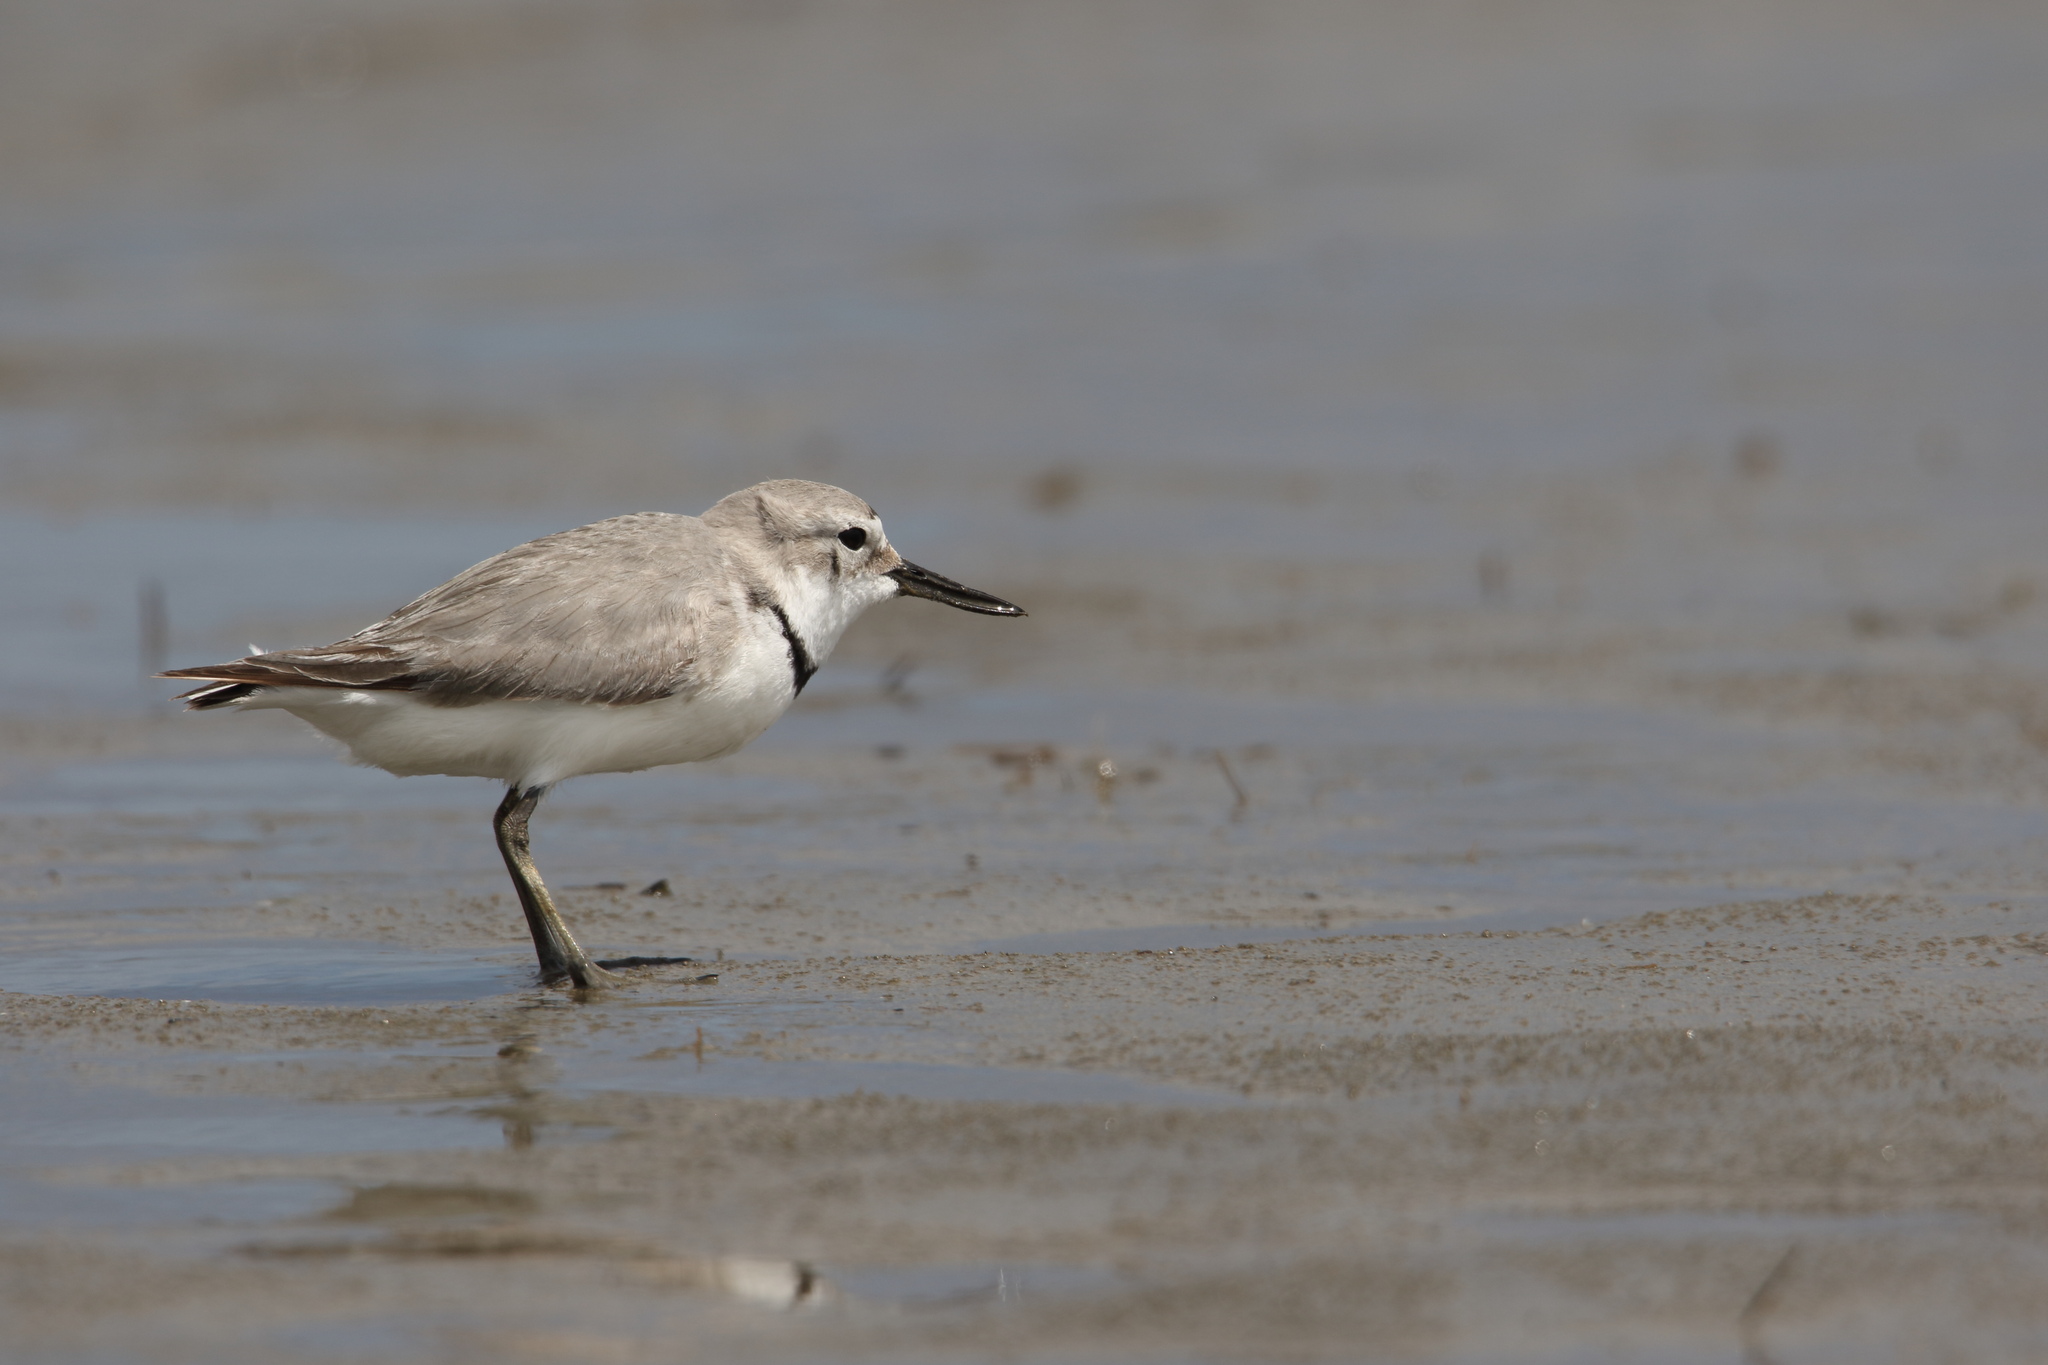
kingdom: Animalia
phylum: Chordata
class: Aves
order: Charadriiformes
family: Charadriidae
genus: Anarhynchus
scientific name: Anarhynchus frontalis
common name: Wrybill
